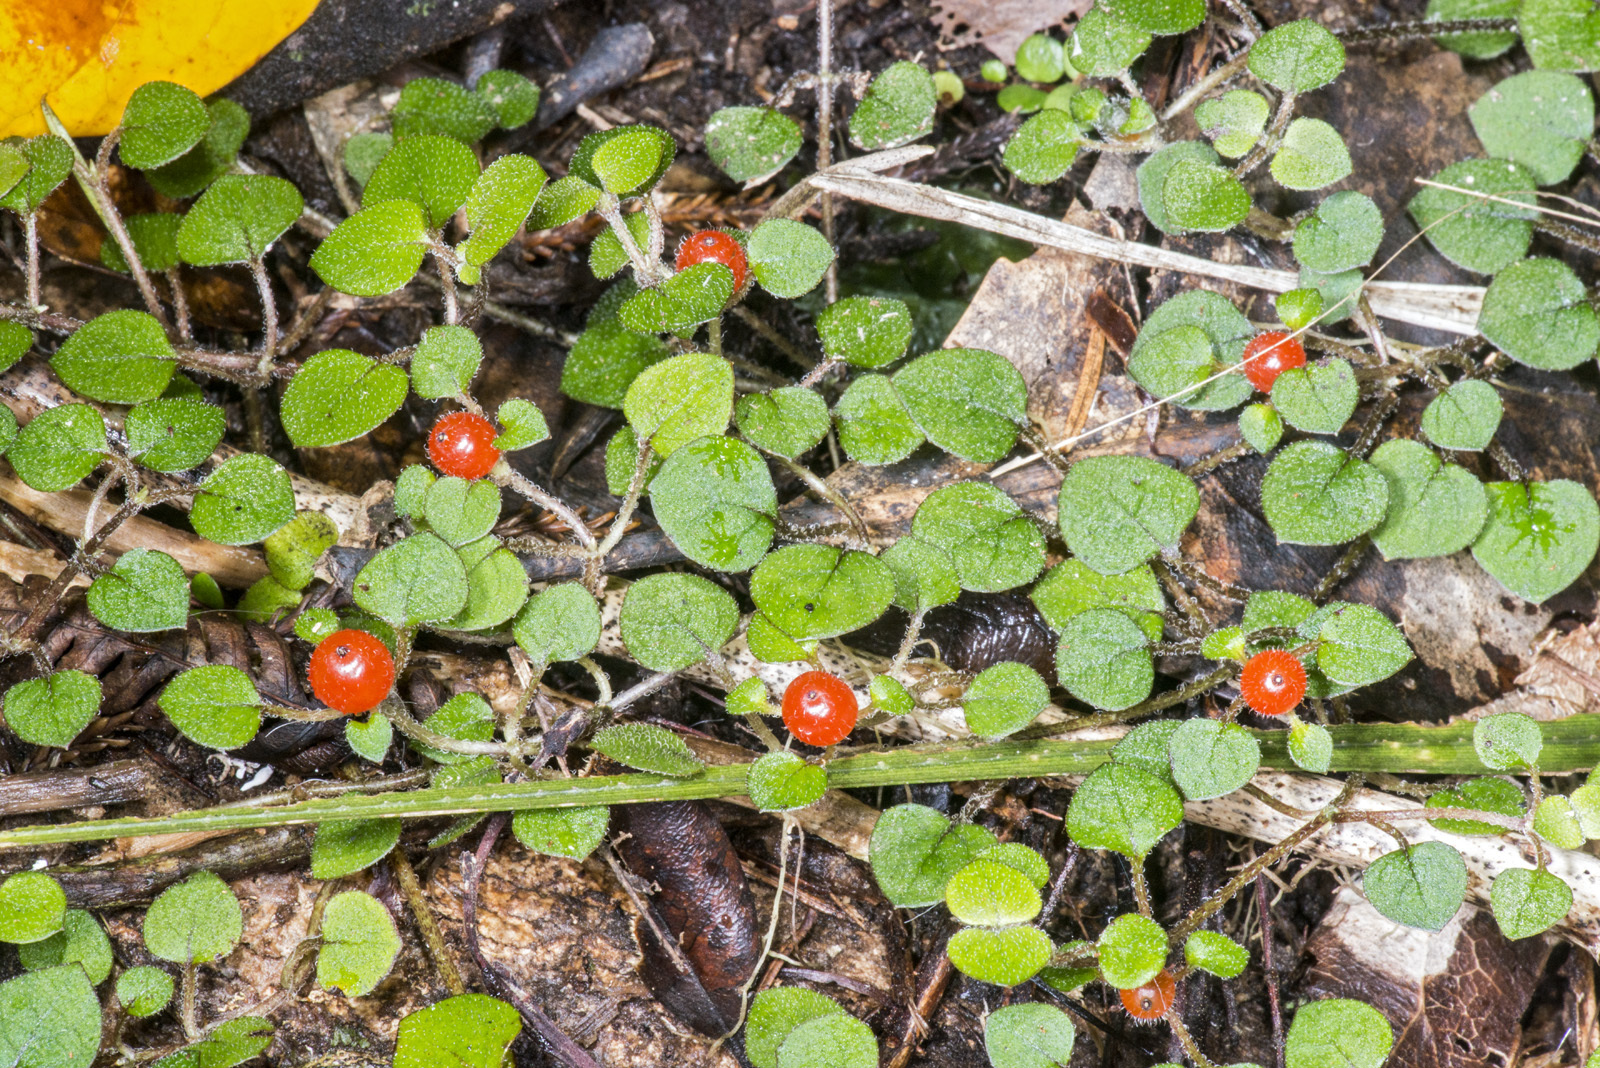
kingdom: Plantae
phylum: Tracheophyta
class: Magnoliopsida
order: Gentianales
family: Rubiaceae
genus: Nertera
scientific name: Nertera dichondrifolia
